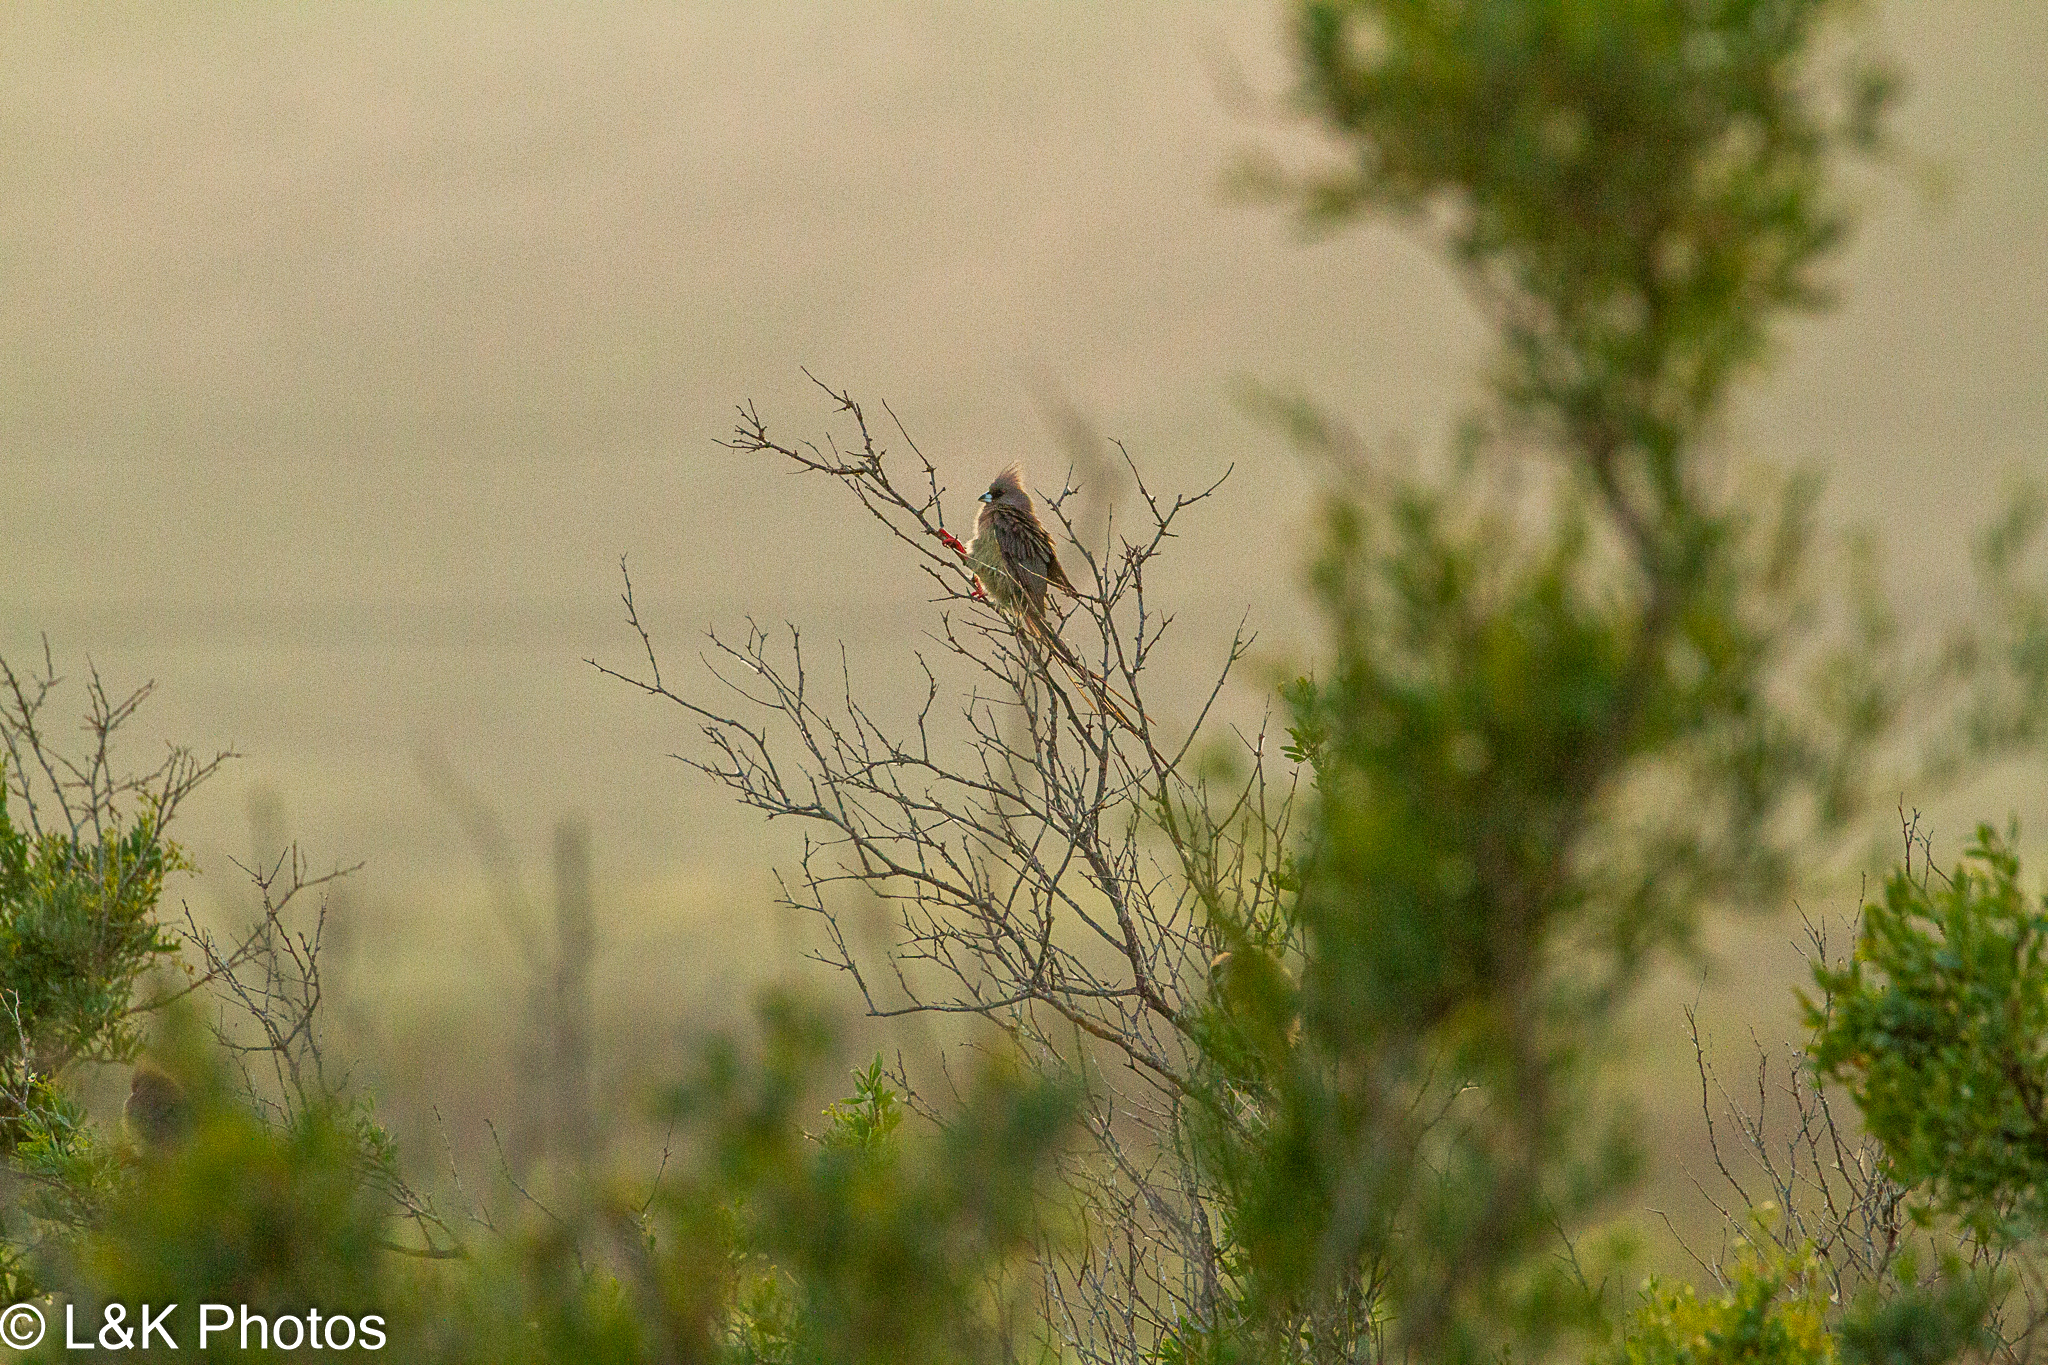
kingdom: Animalia
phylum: Chordata
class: Aves
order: Coliiformes
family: Coliidae
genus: Colius
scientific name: Colius colius
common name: White-backed mousebird
